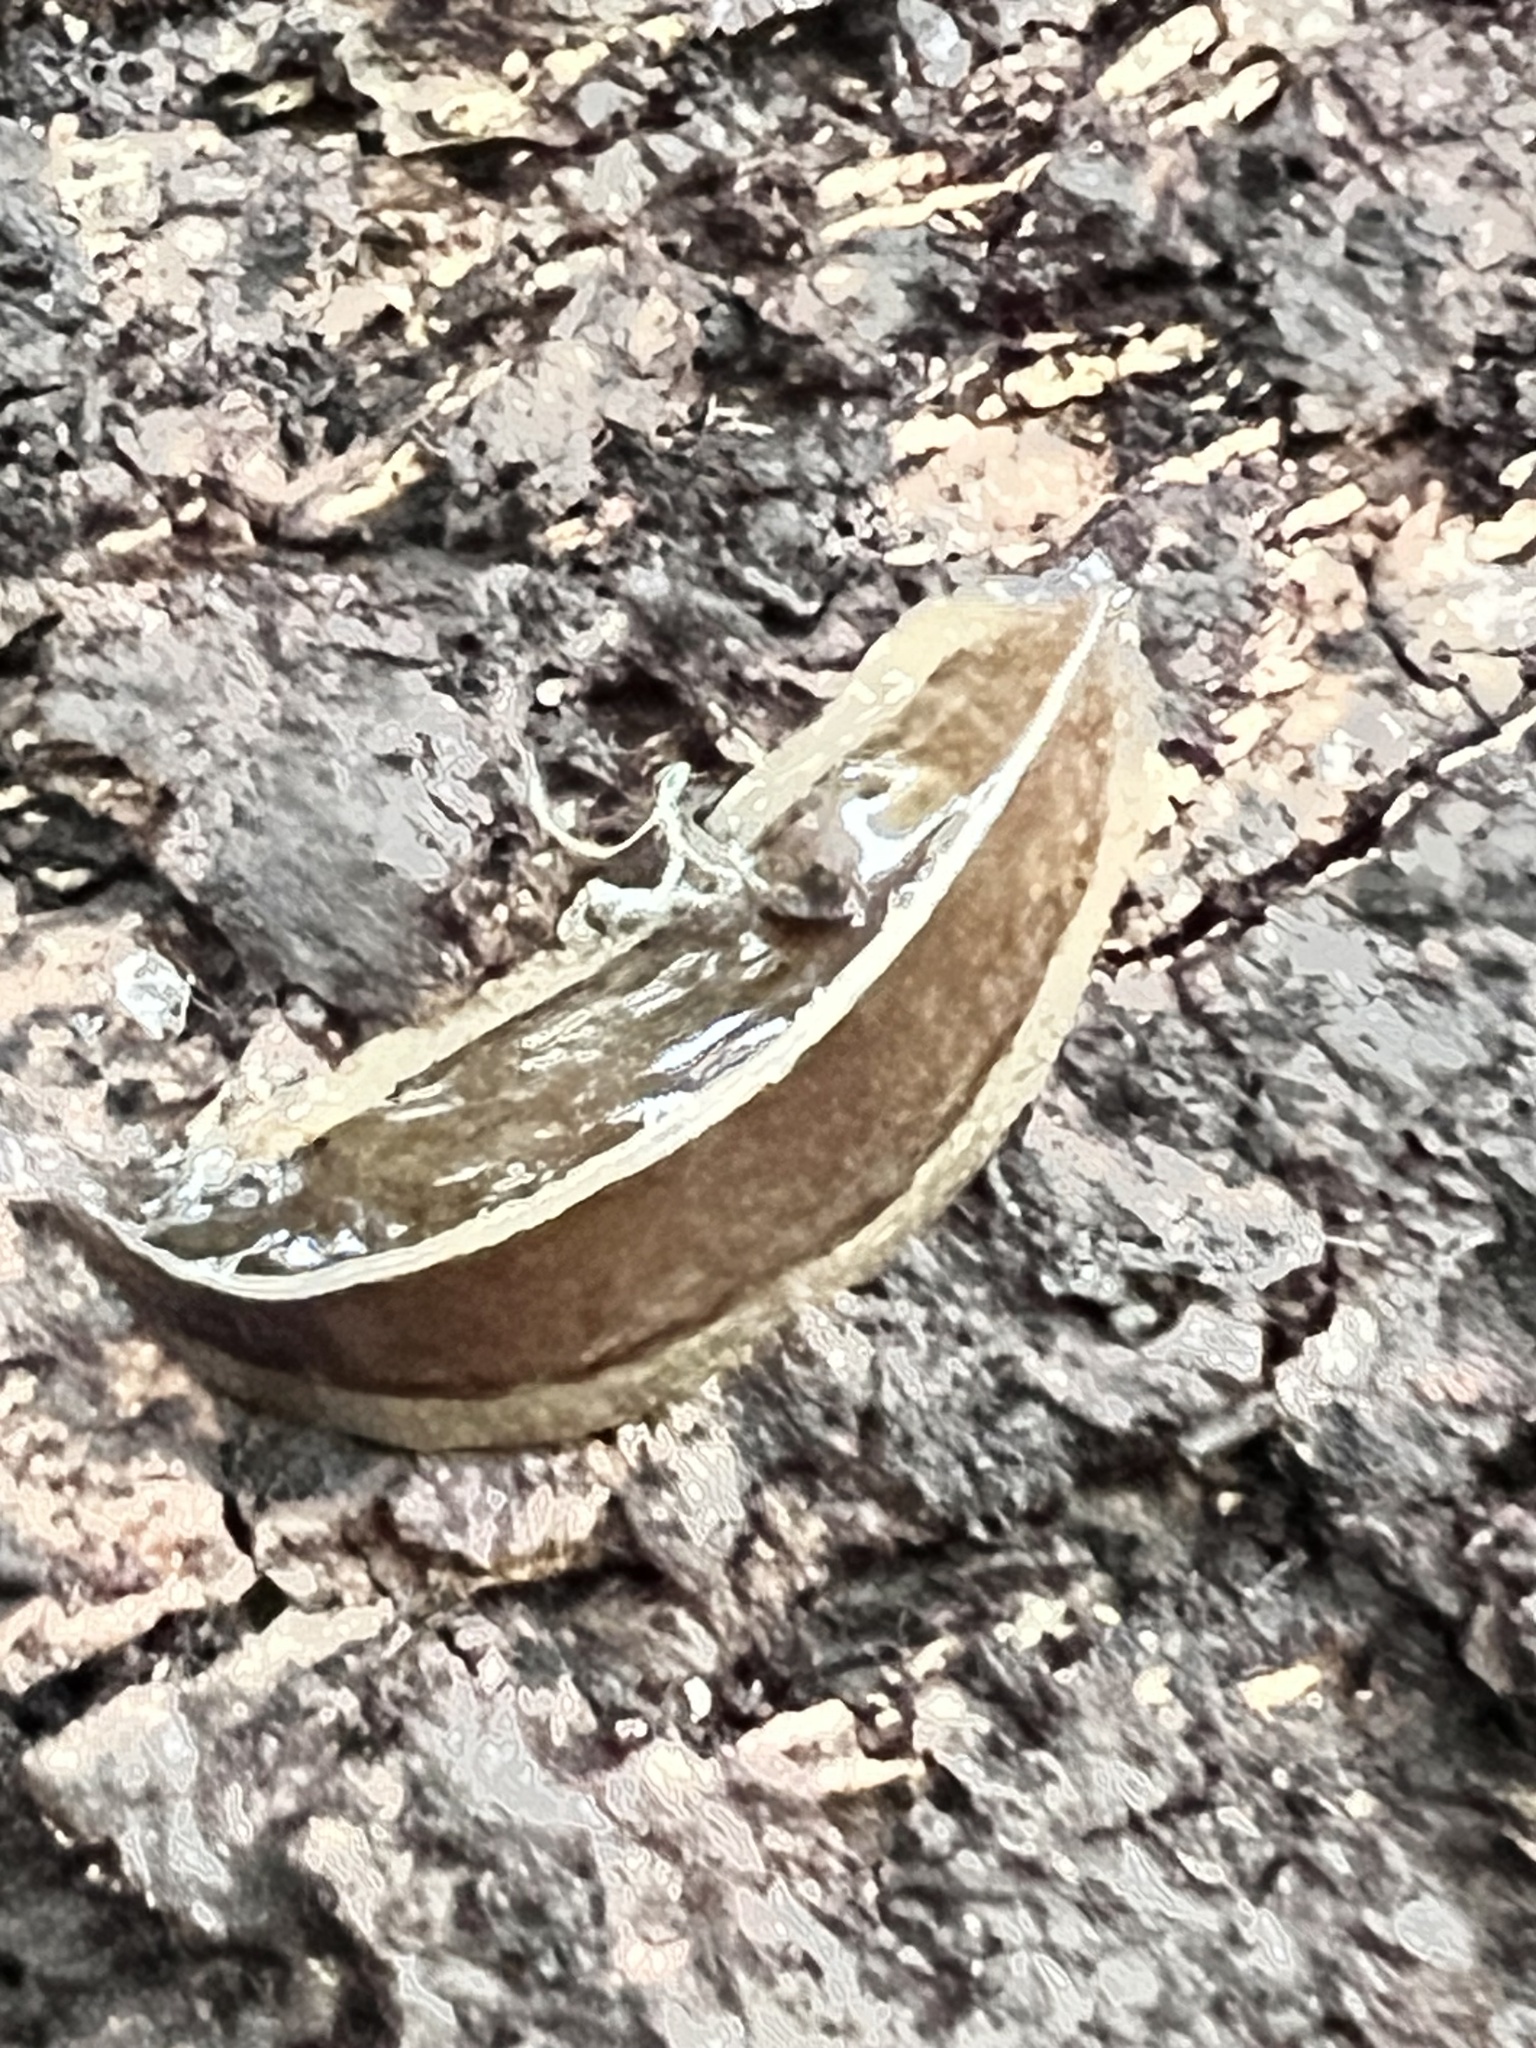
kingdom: Animalia
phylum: Platyhelminthes
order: Tricladida
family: Geoplanidae
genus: Newzealandia
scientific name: Newzealandia graffii
